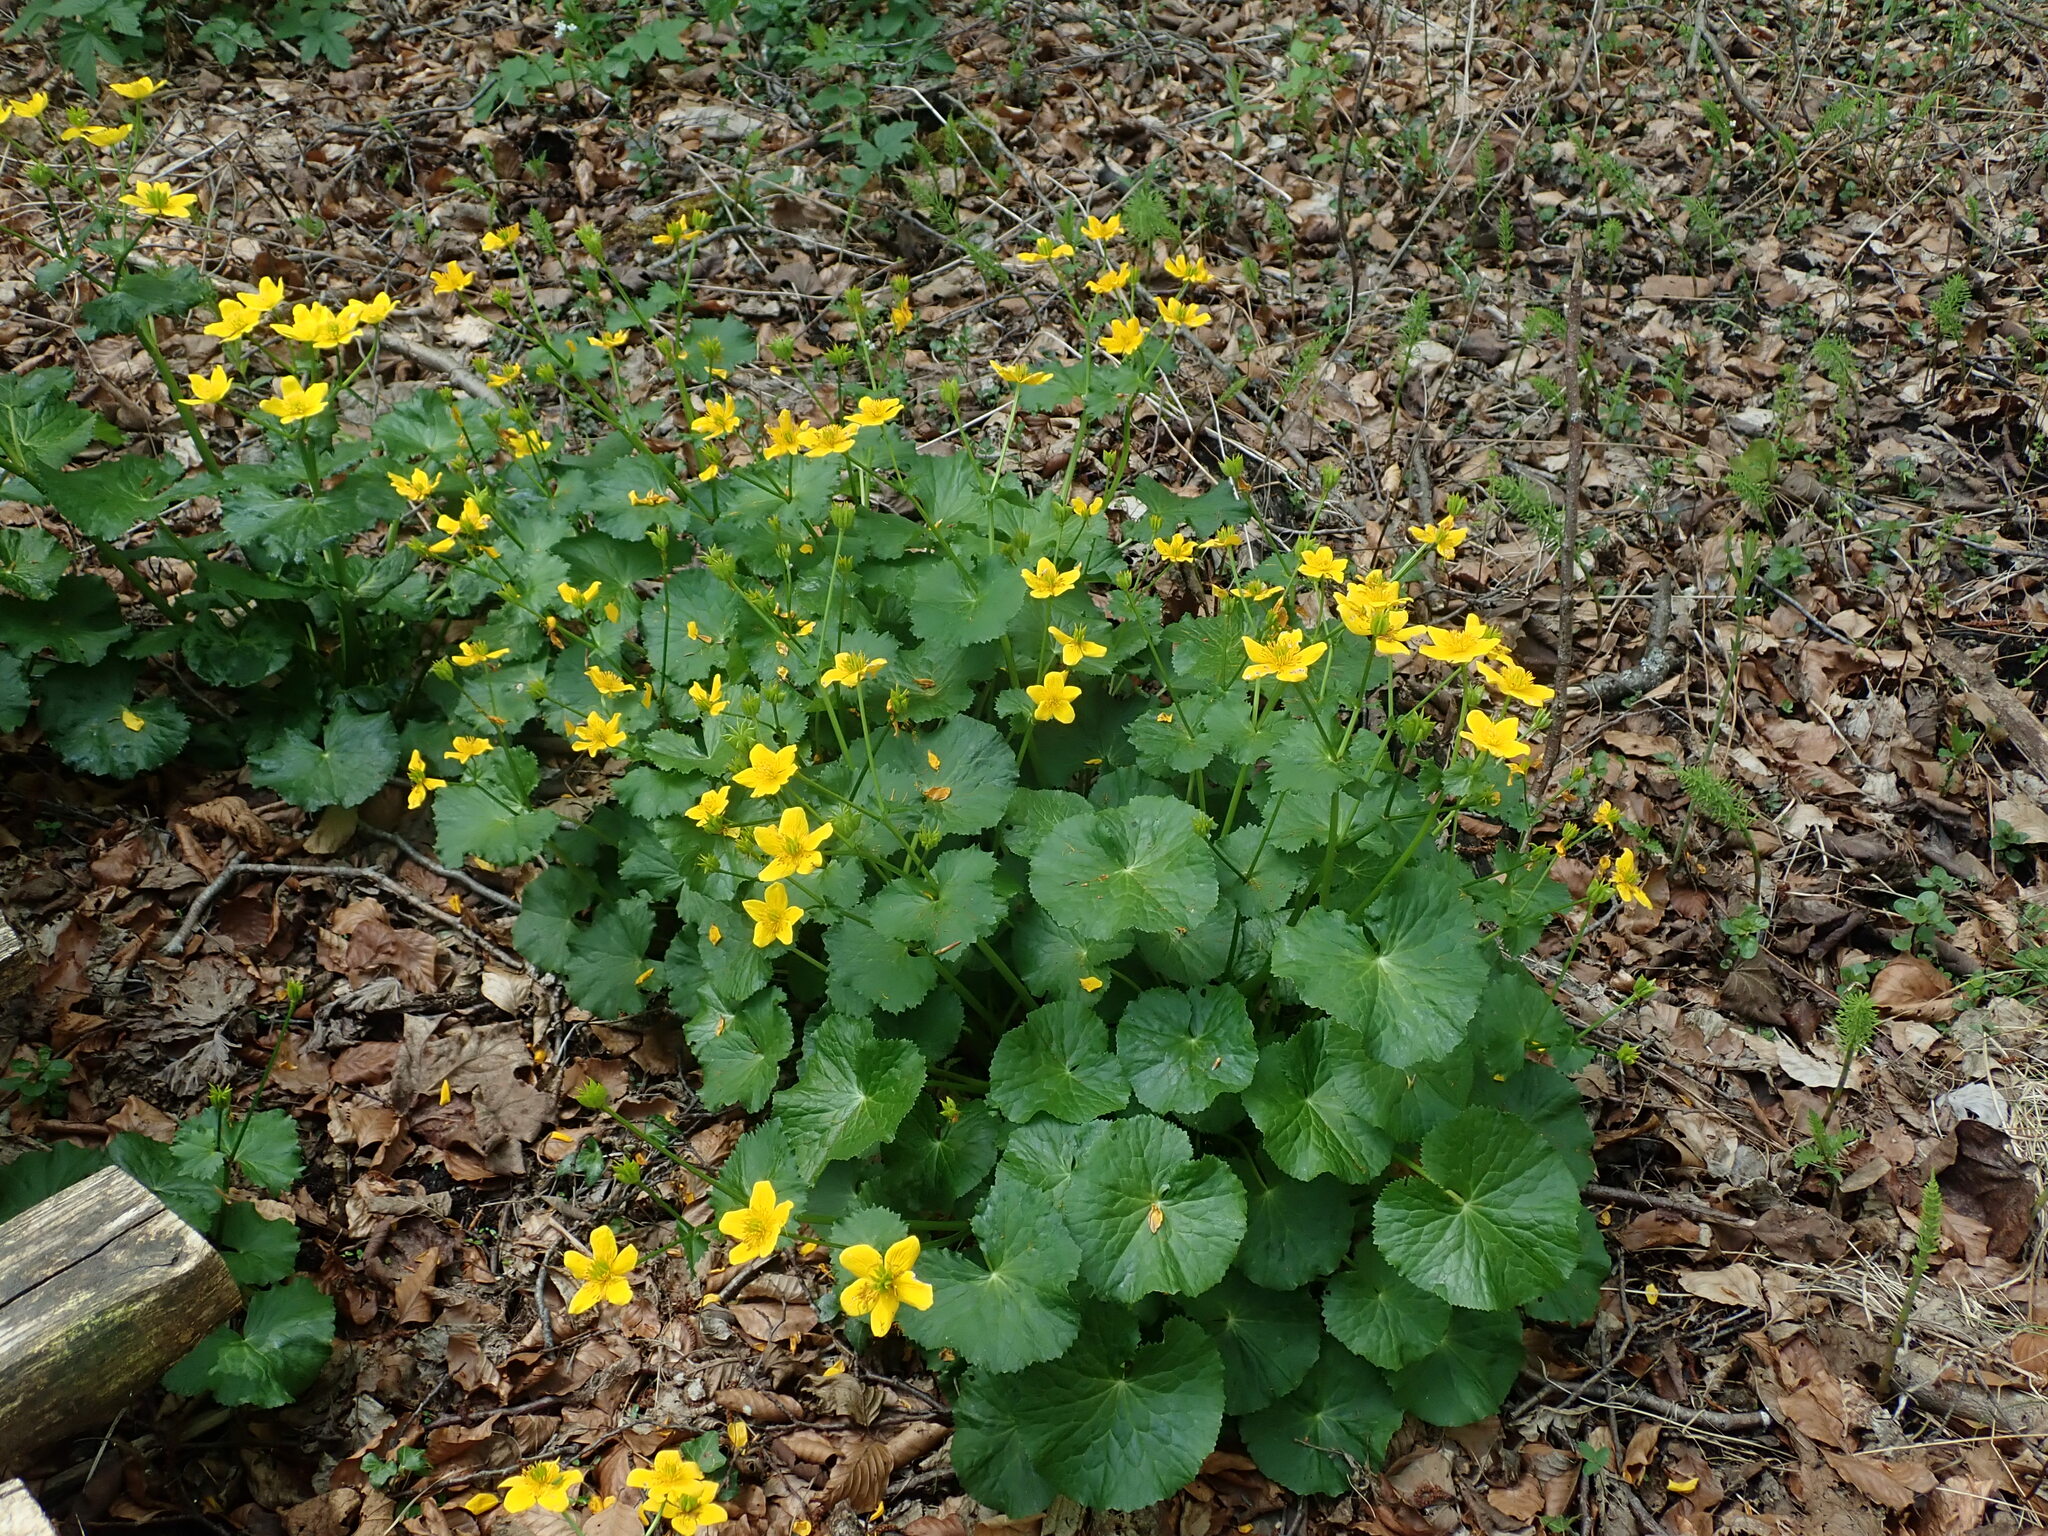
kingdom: Plantae
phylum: Tracheophyta
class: Magnoliopsida
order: Ranunculales
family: Ranunculaceae
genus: Caltha
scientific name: Caltha palustris
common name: Marsh marigold
